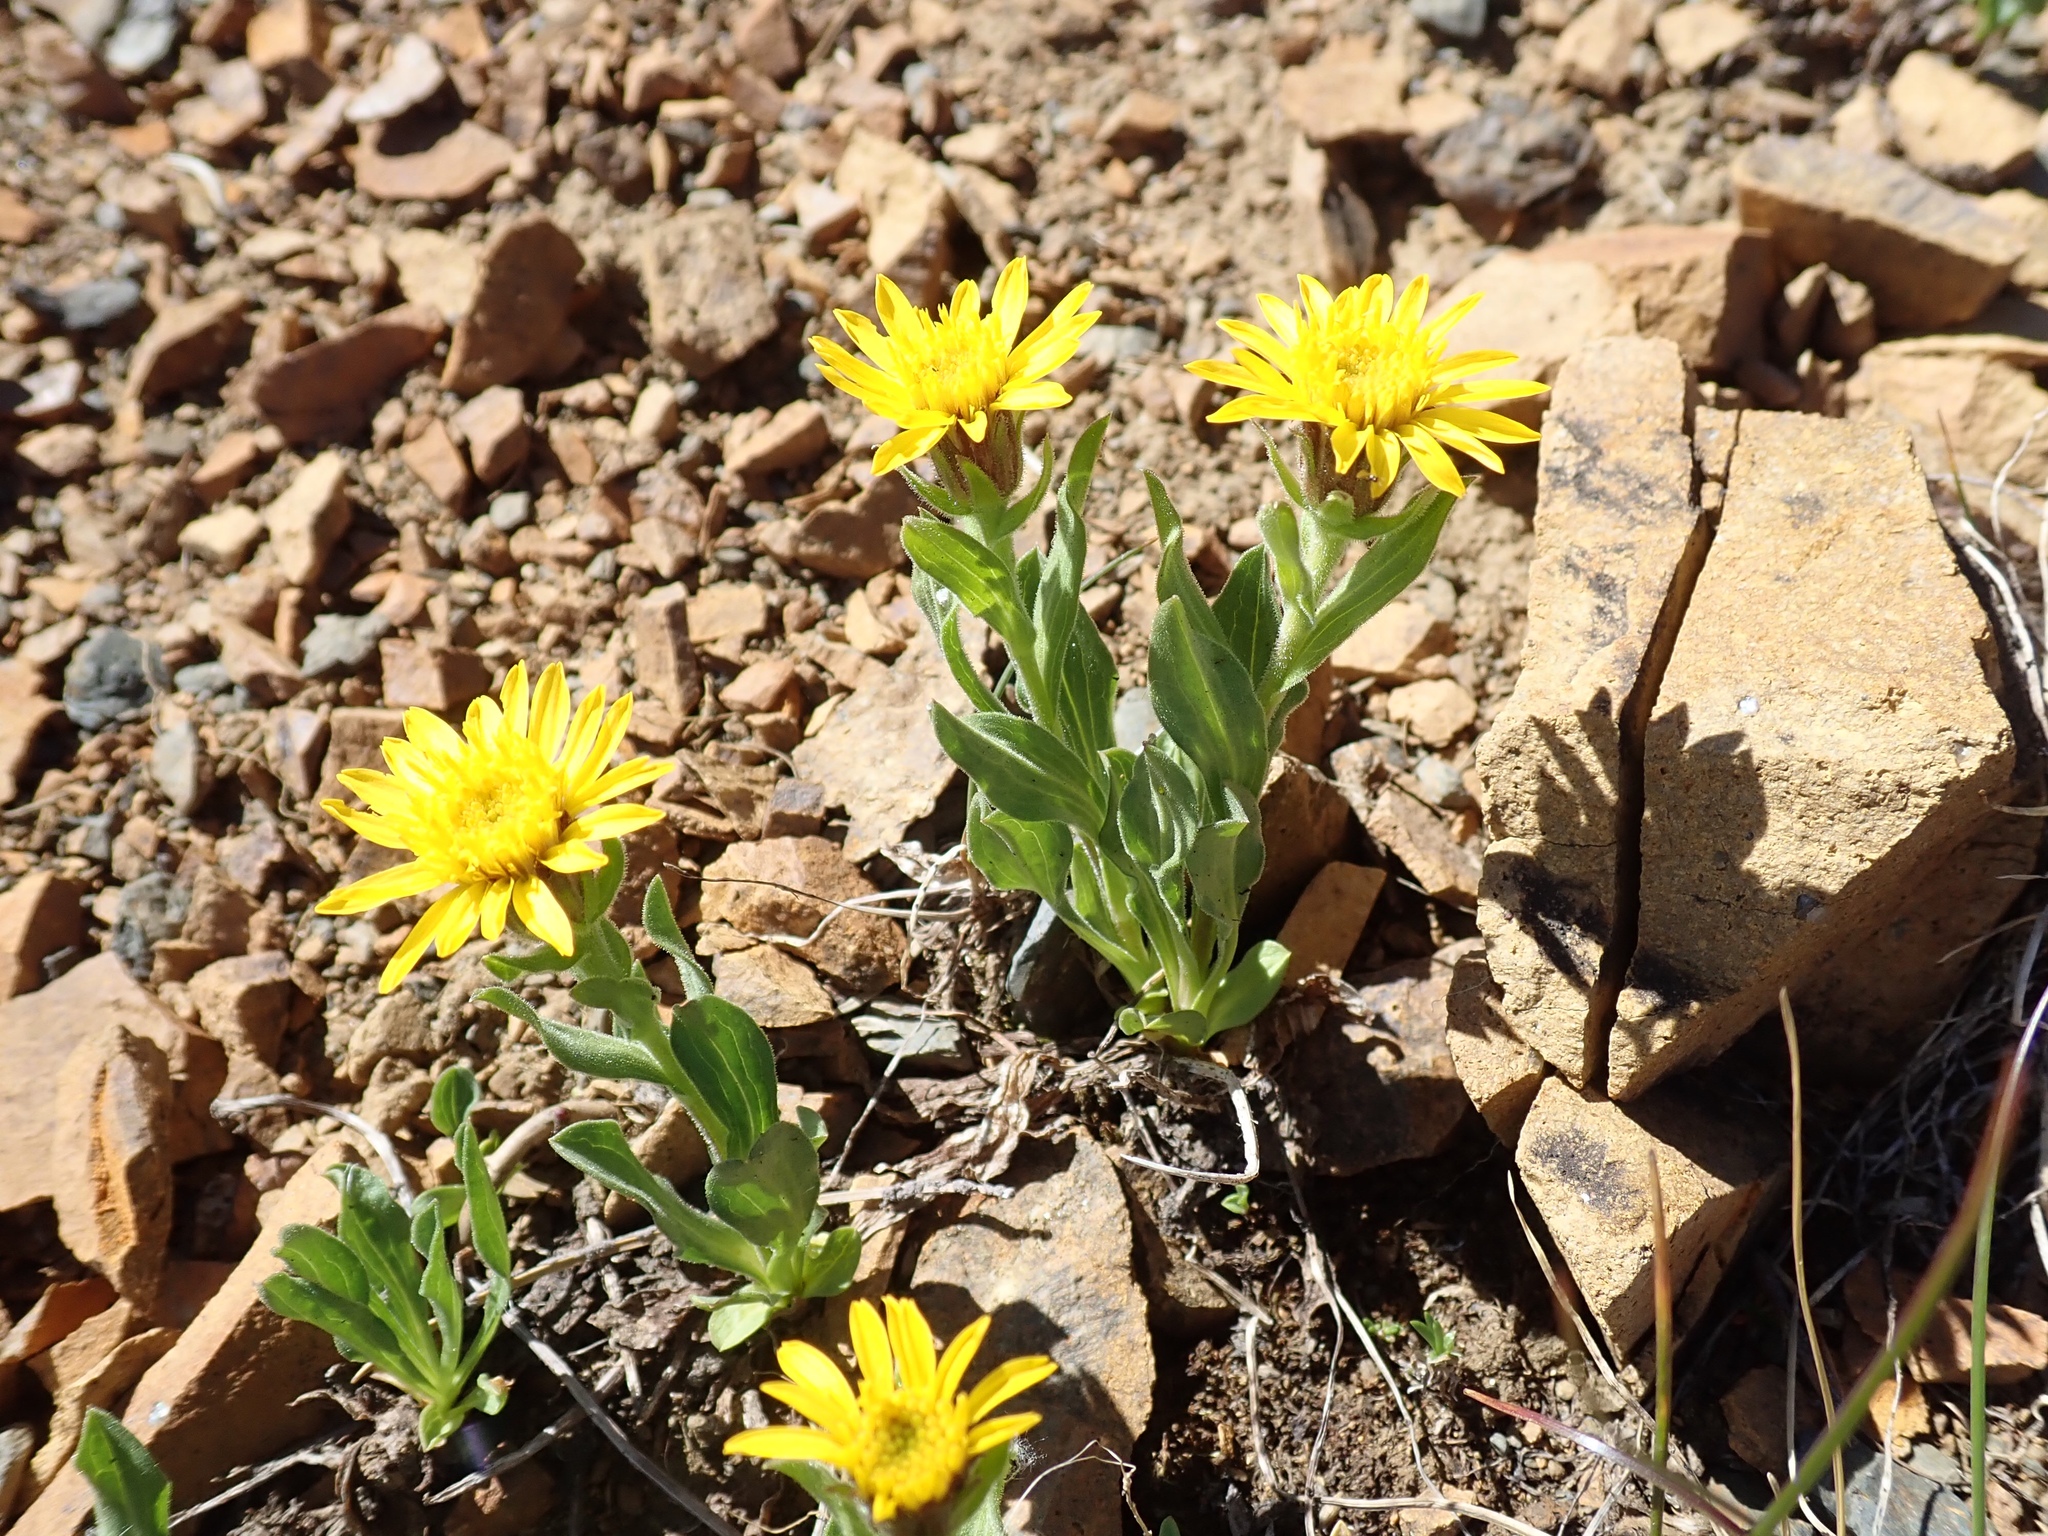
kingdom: Plantae
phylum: Tracheophyta
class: Magnoliopsida
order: Asterales
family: Asteraceae
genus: Tonestus
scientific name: Tonestus lyallii
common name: Lyall's goldenweed
